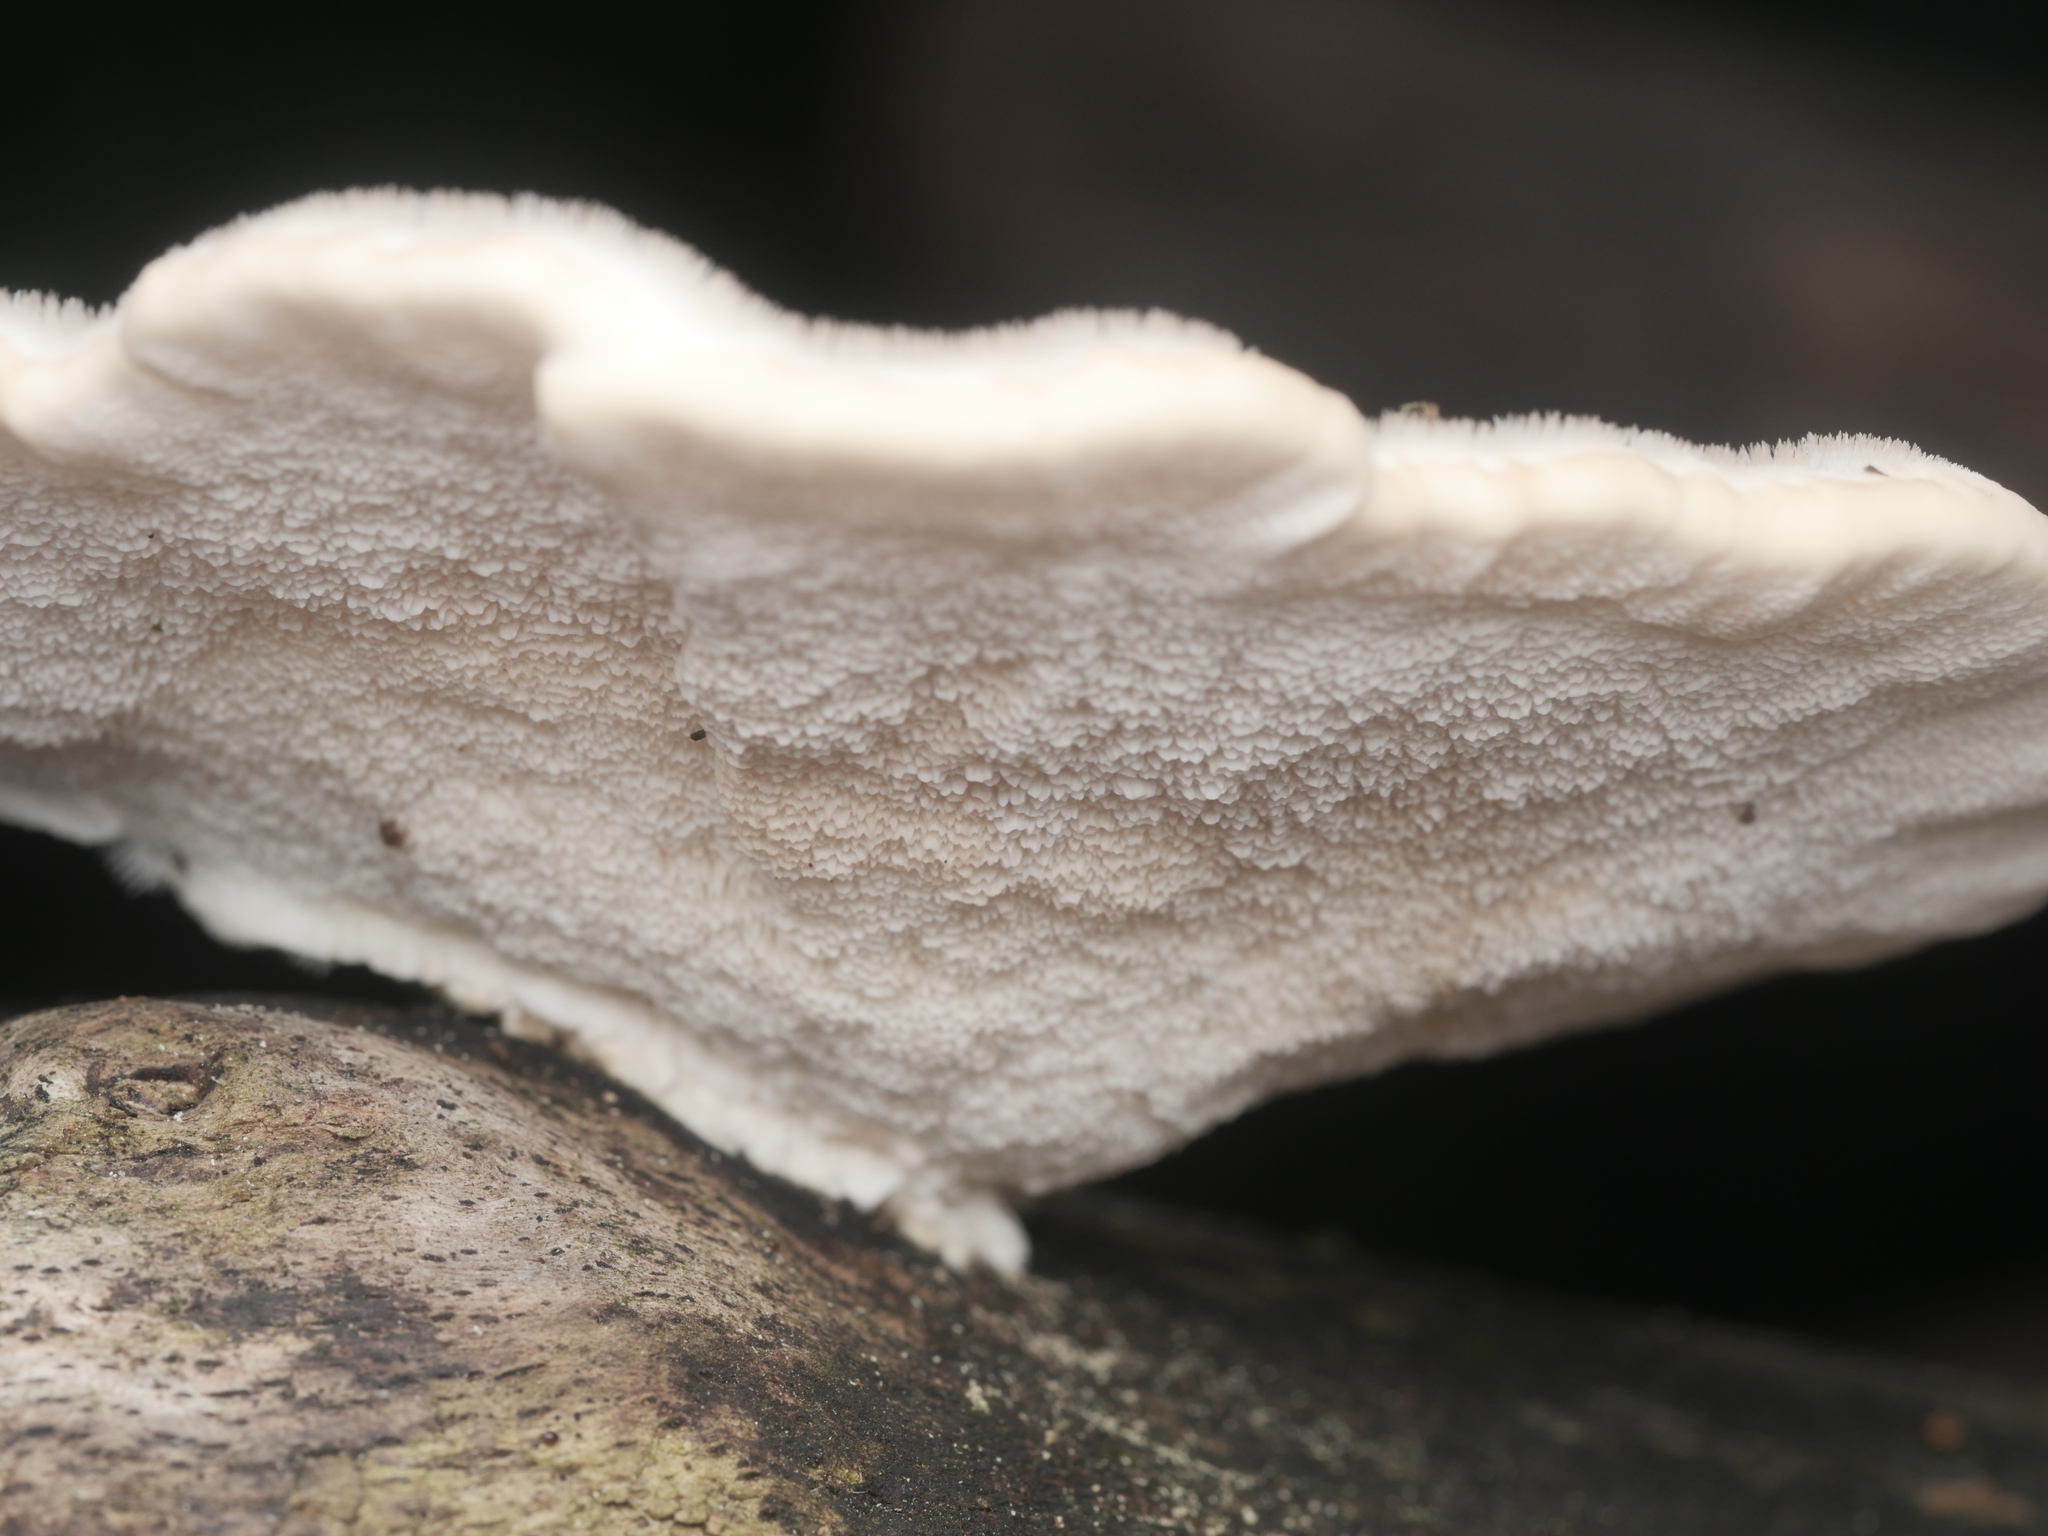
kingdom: Fungi
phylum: Basidiomycota
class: Agaricomycetes
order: Polyporales
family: Polyporaceae
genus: Trametes
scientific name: Trametes hirsuta
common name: Hairy bracket
